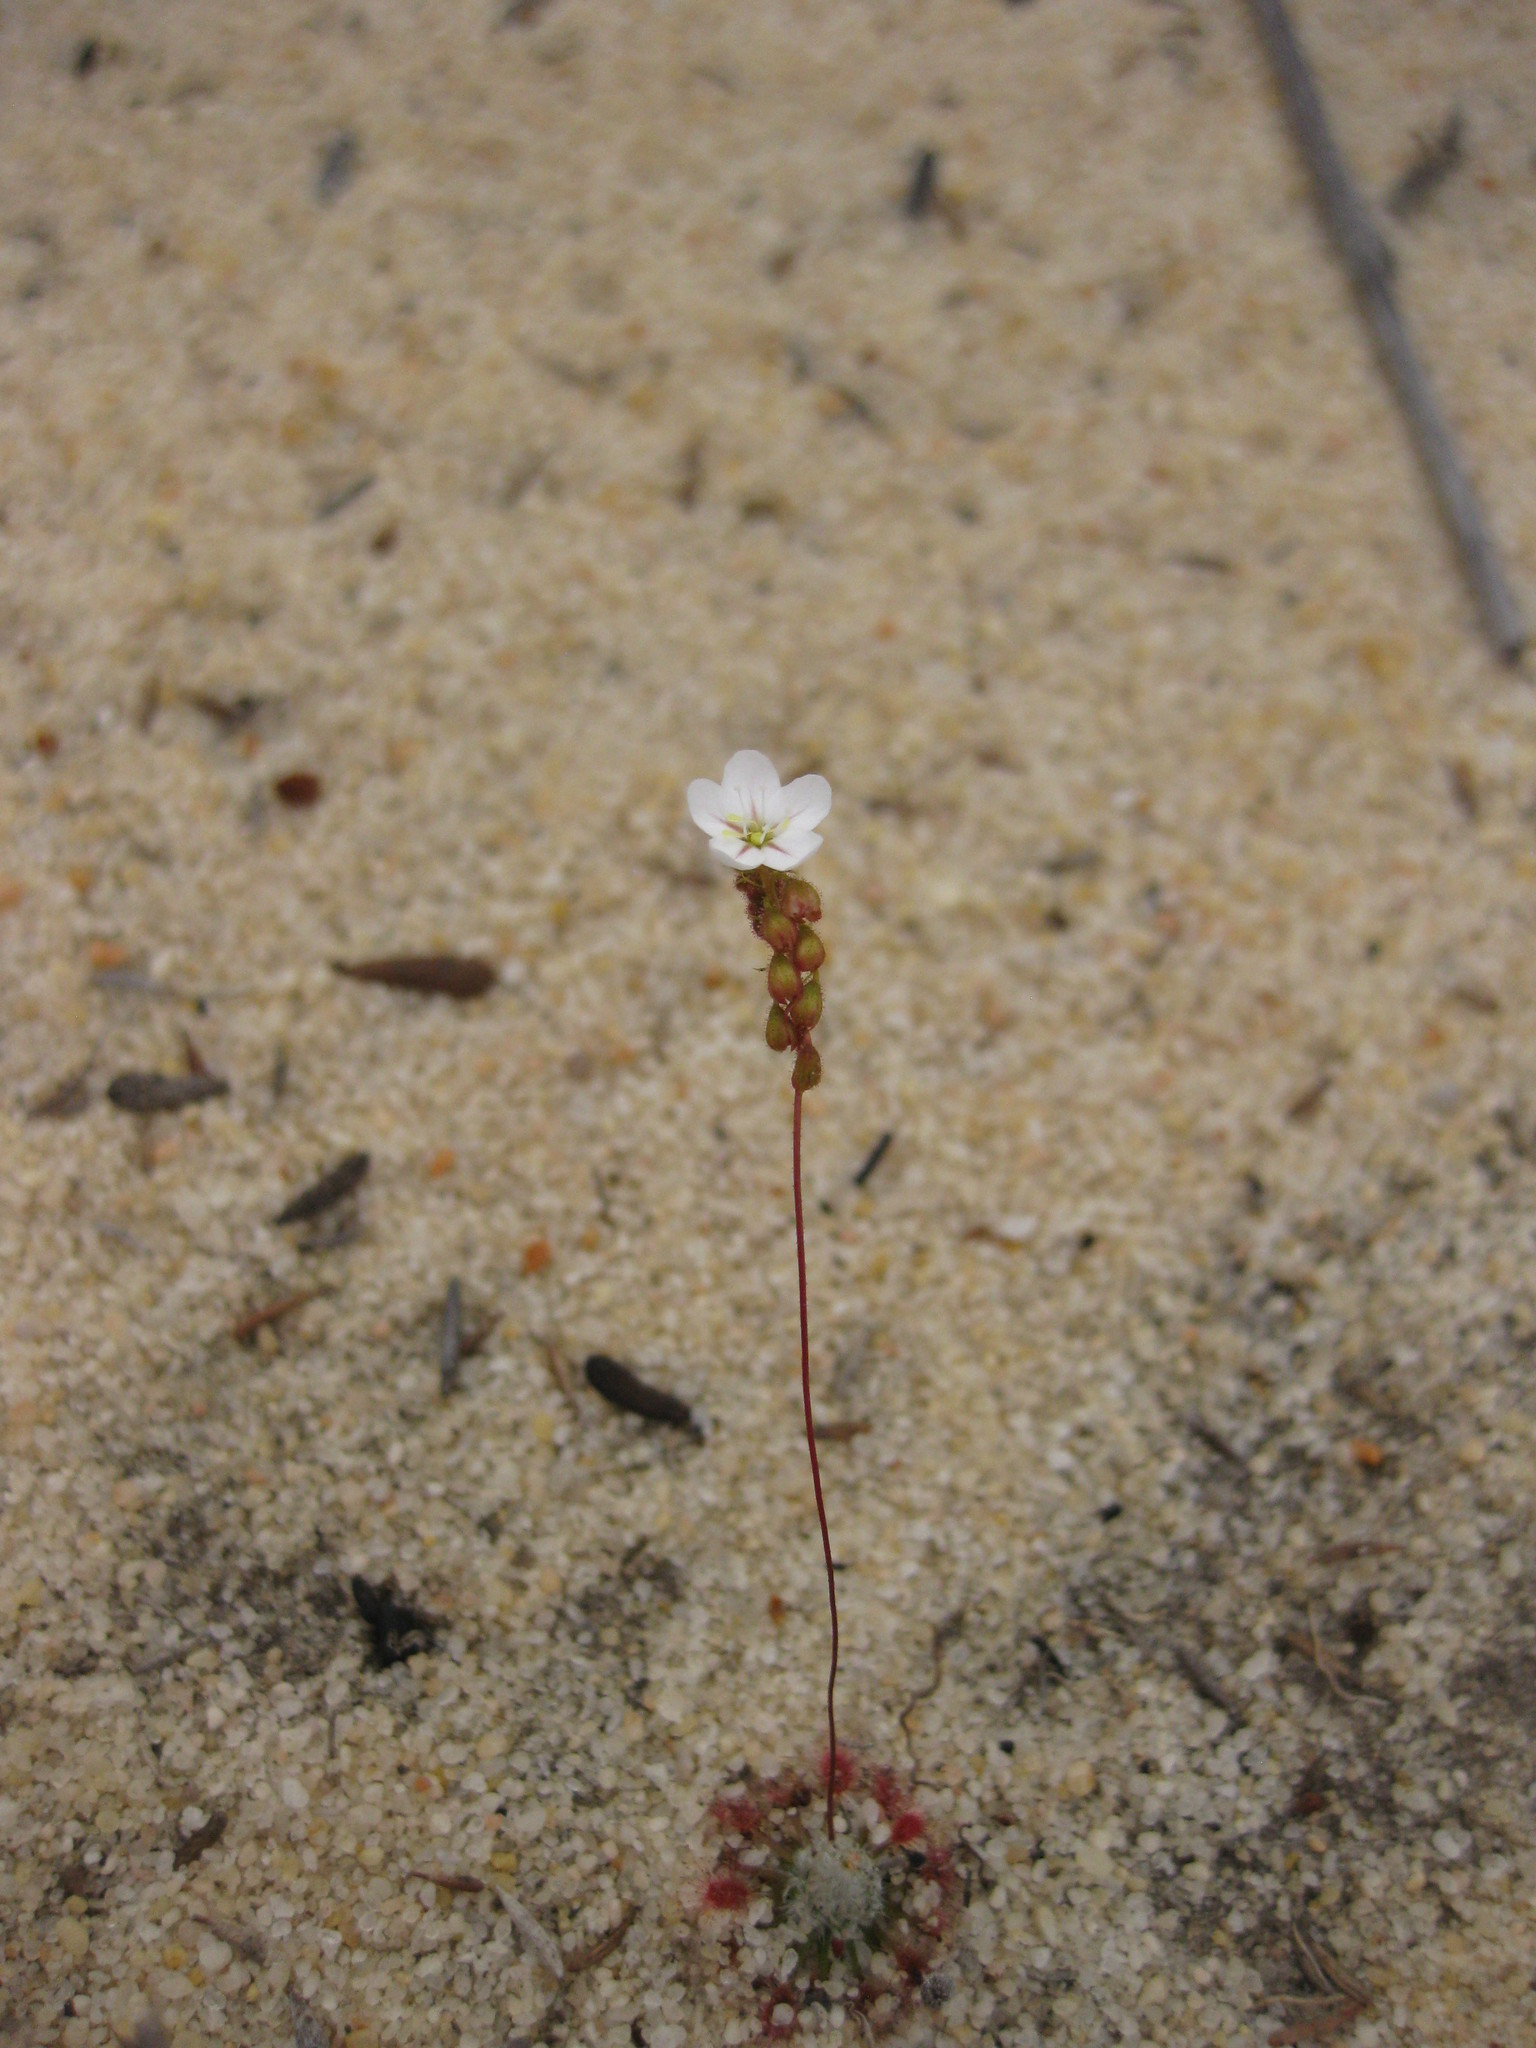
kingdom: Plantae
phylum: Tracheophyta
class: Magnoliopsida
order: Caryophyllales
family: Droseraceae
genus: Drosera
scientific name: Drosera rechingeri
